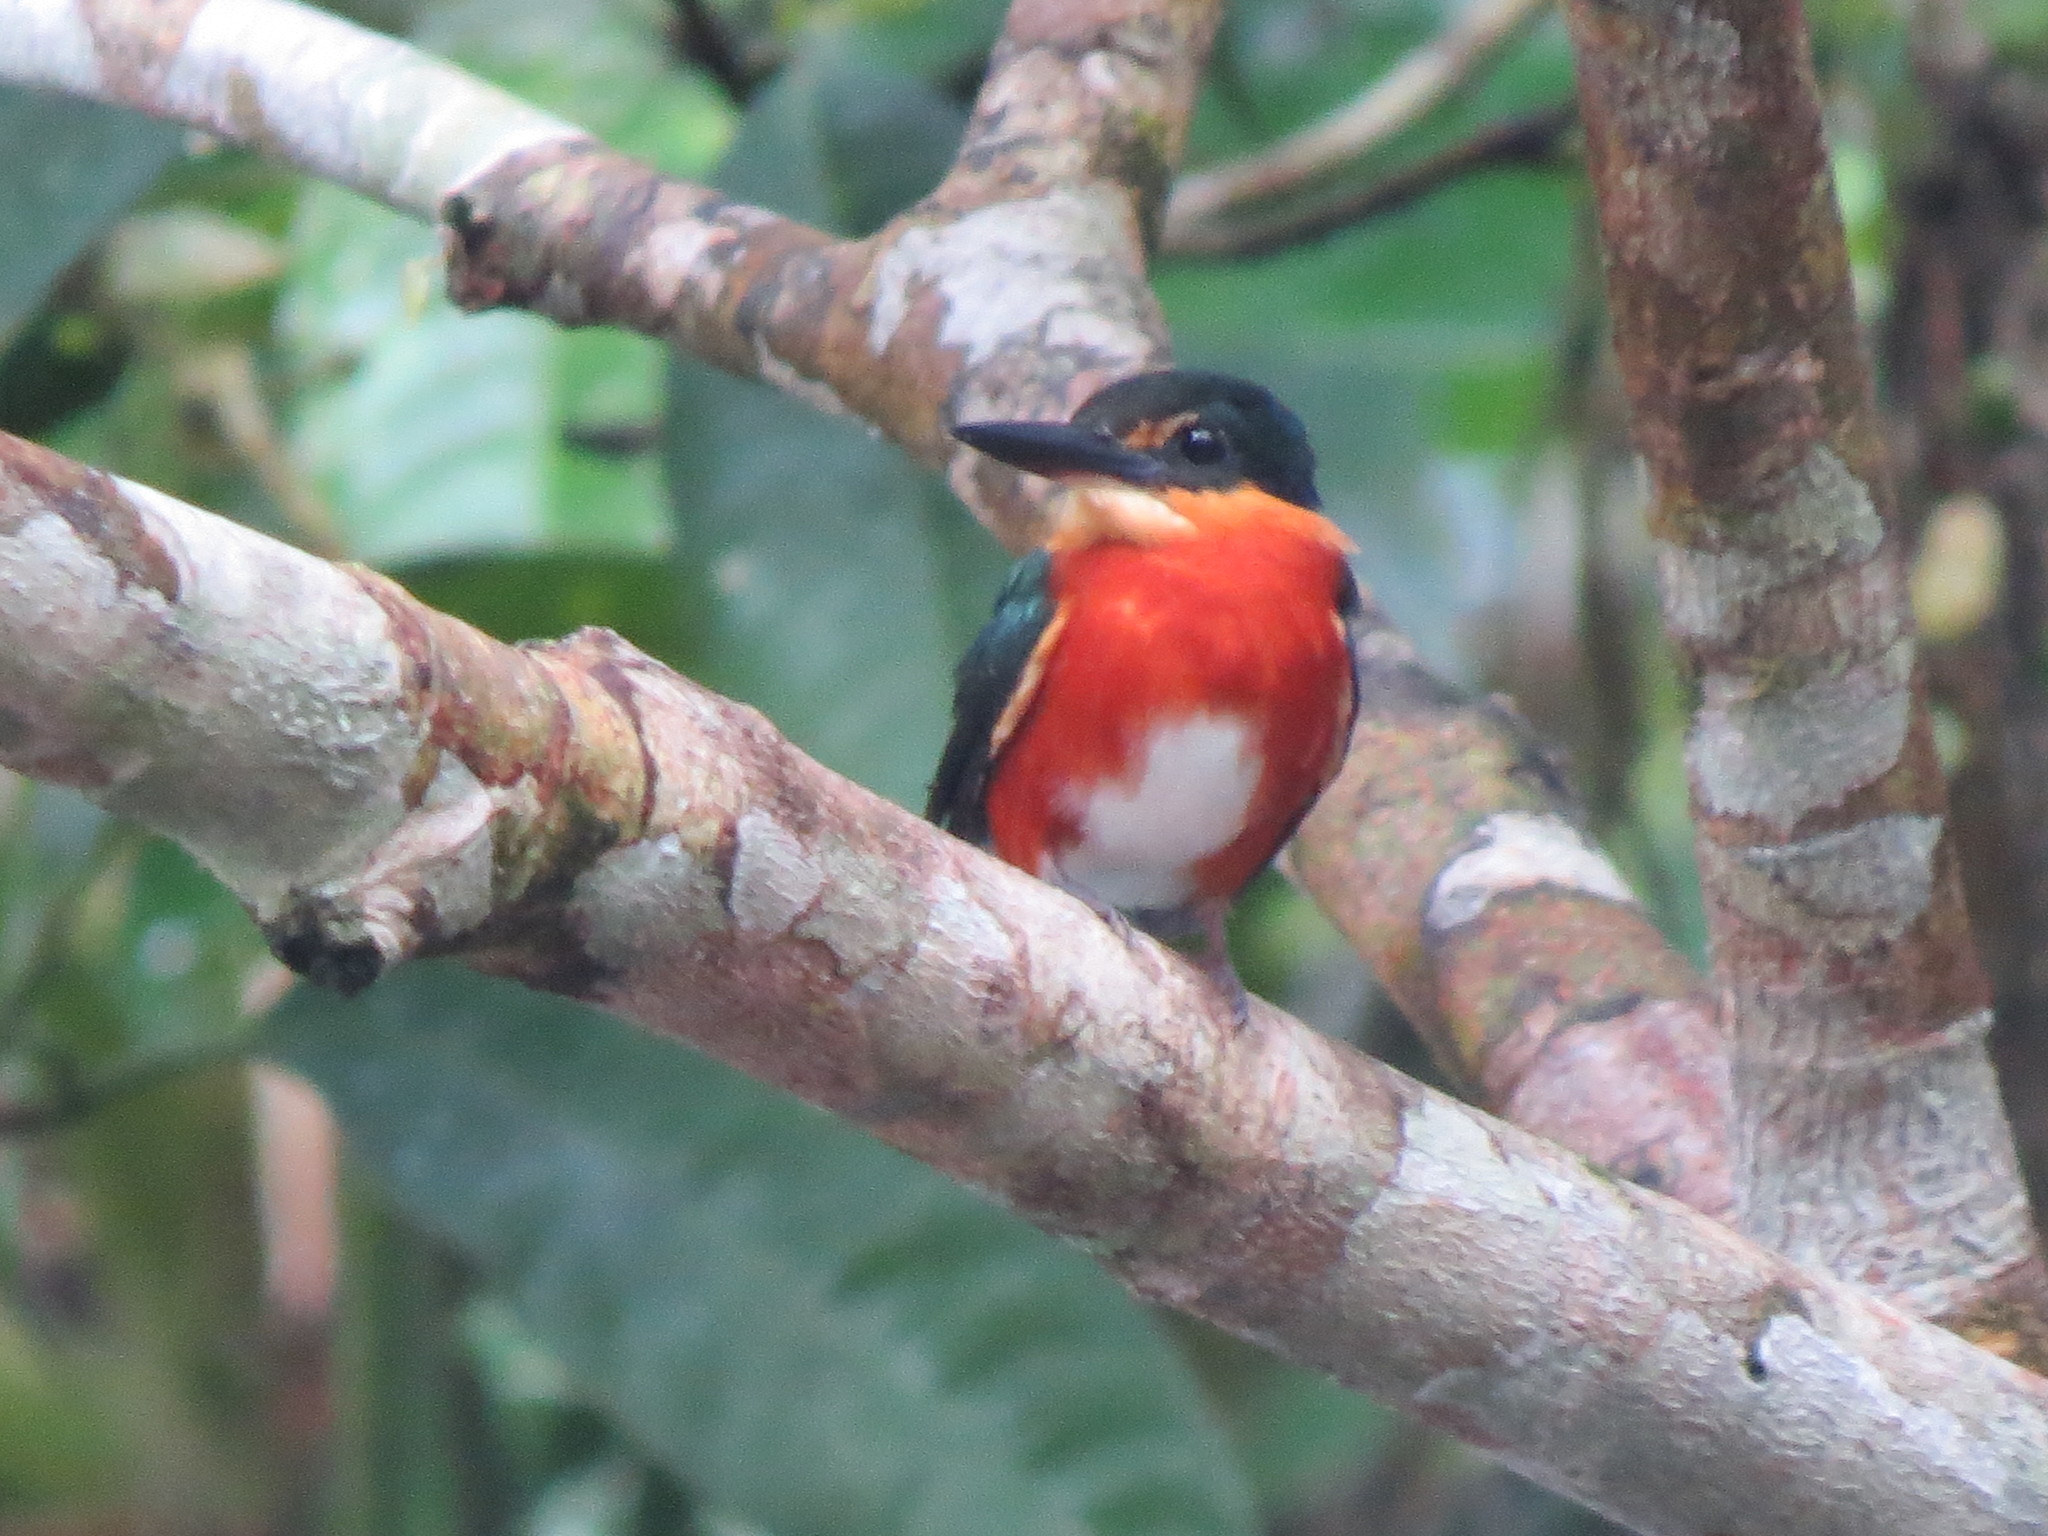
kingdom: Animalia
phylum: Chordata
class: Aves
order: Coraciiformes
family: Alcedinidae
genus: Chloroceryle
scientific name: Chloroceryle aenea
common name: American pygmy kingfisher
